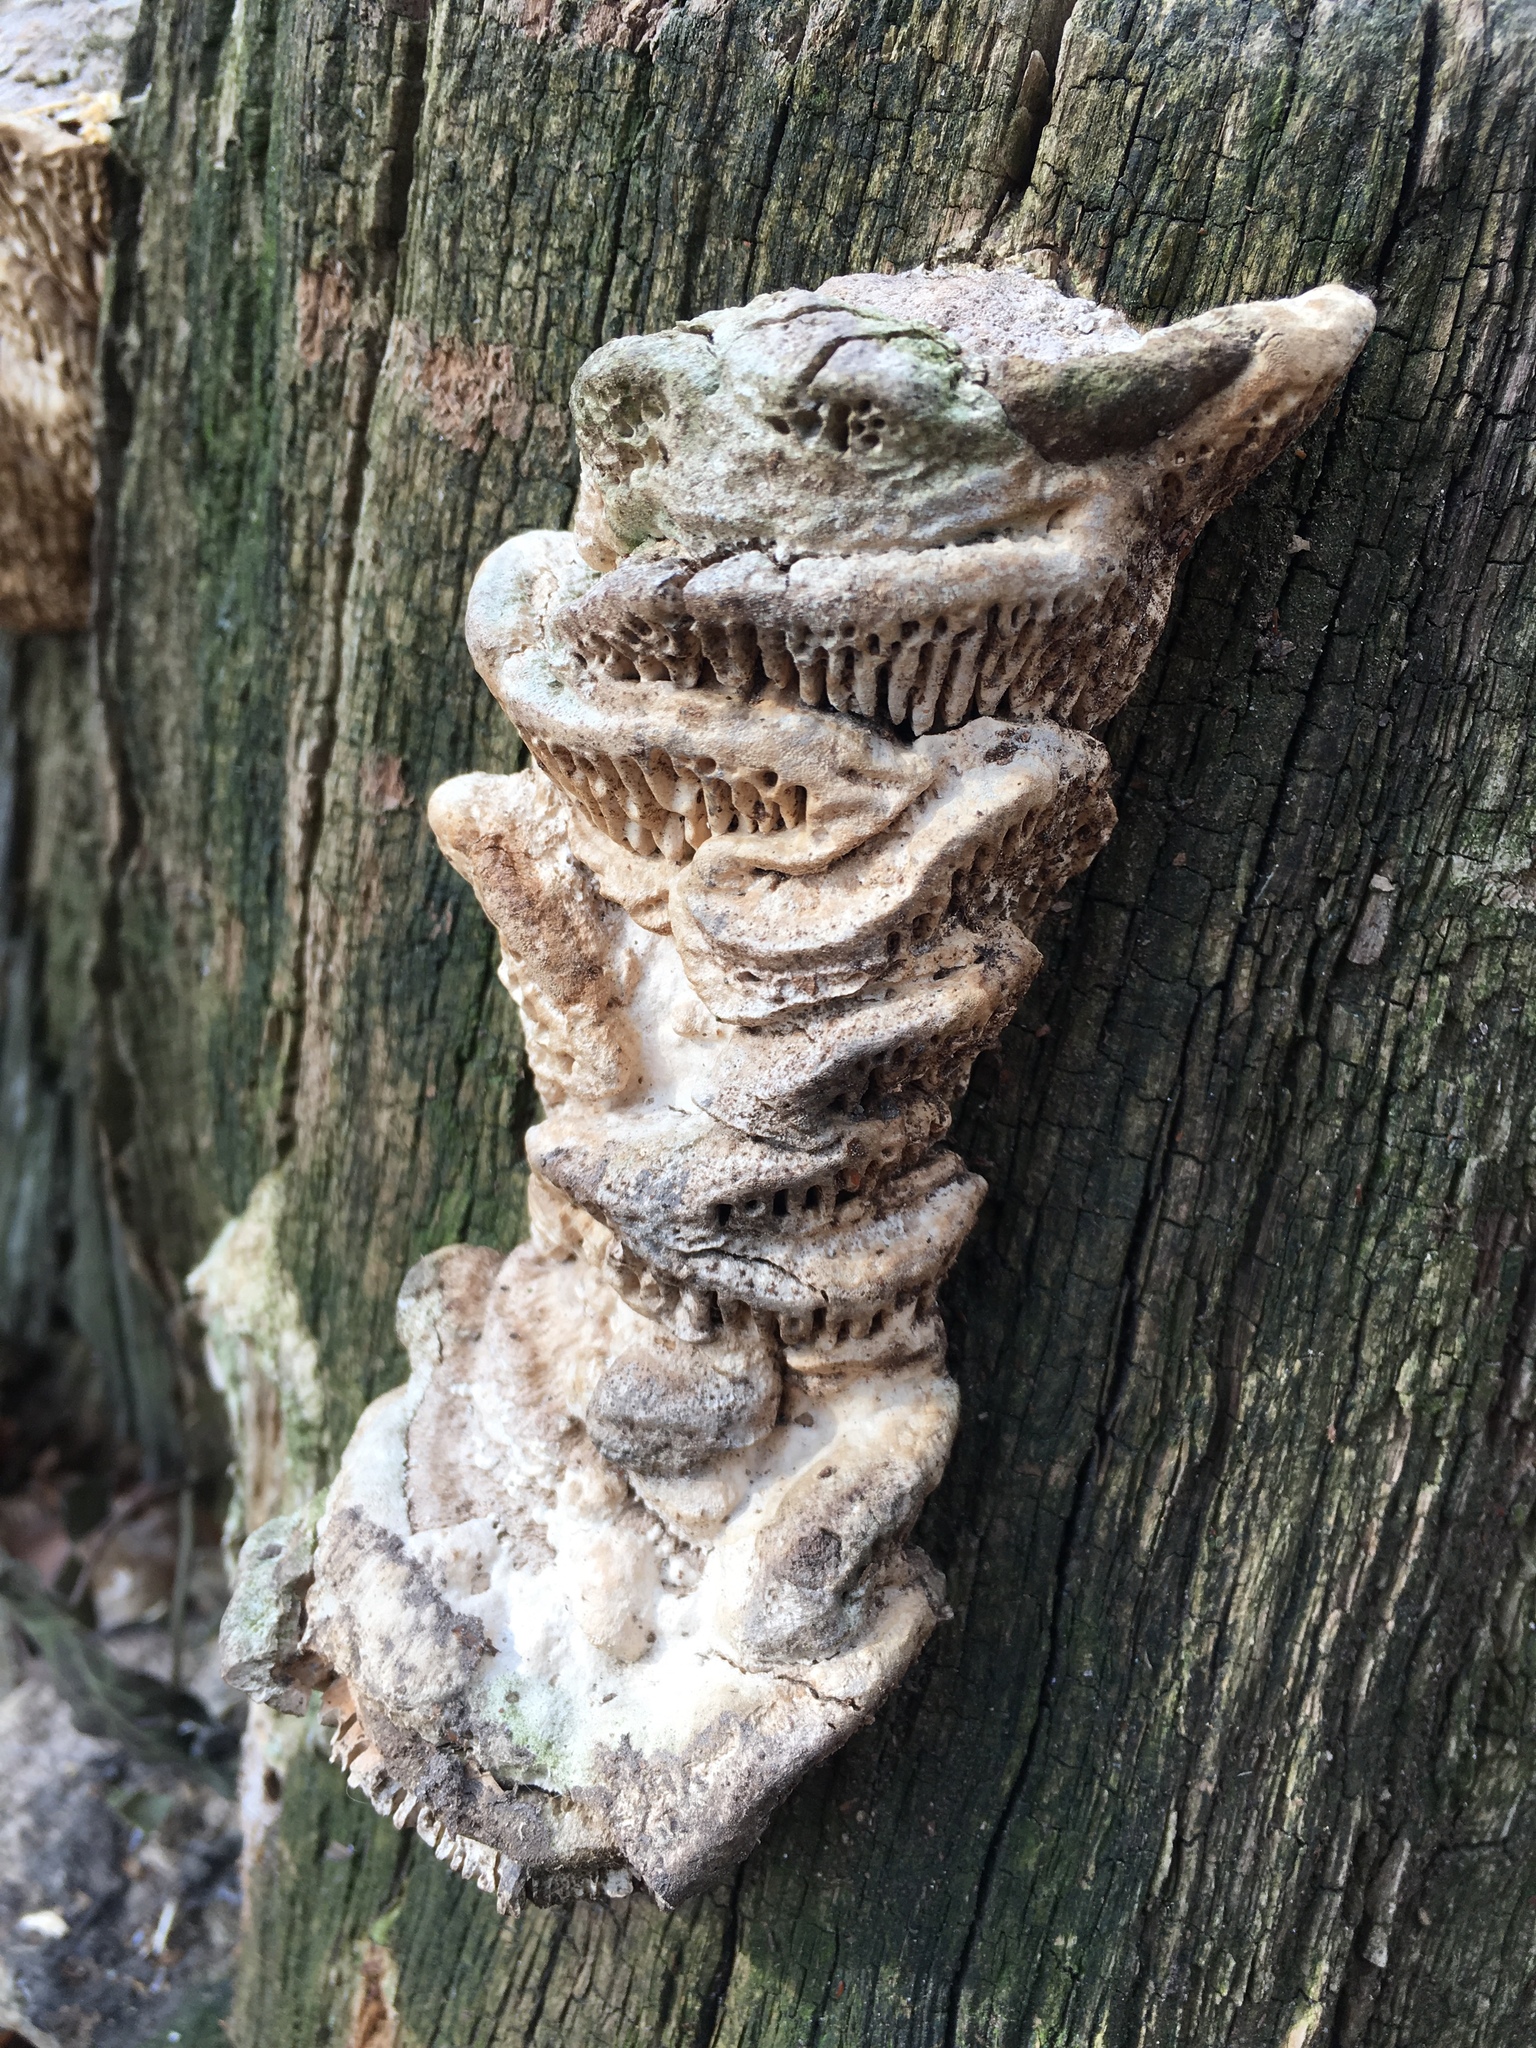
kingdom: Fungi
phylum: Basidiomycota
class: Agaricomycetes
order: Polyporales
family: Fomitopsidaceae
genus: Fomitopsis
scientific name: Fomitopsis
